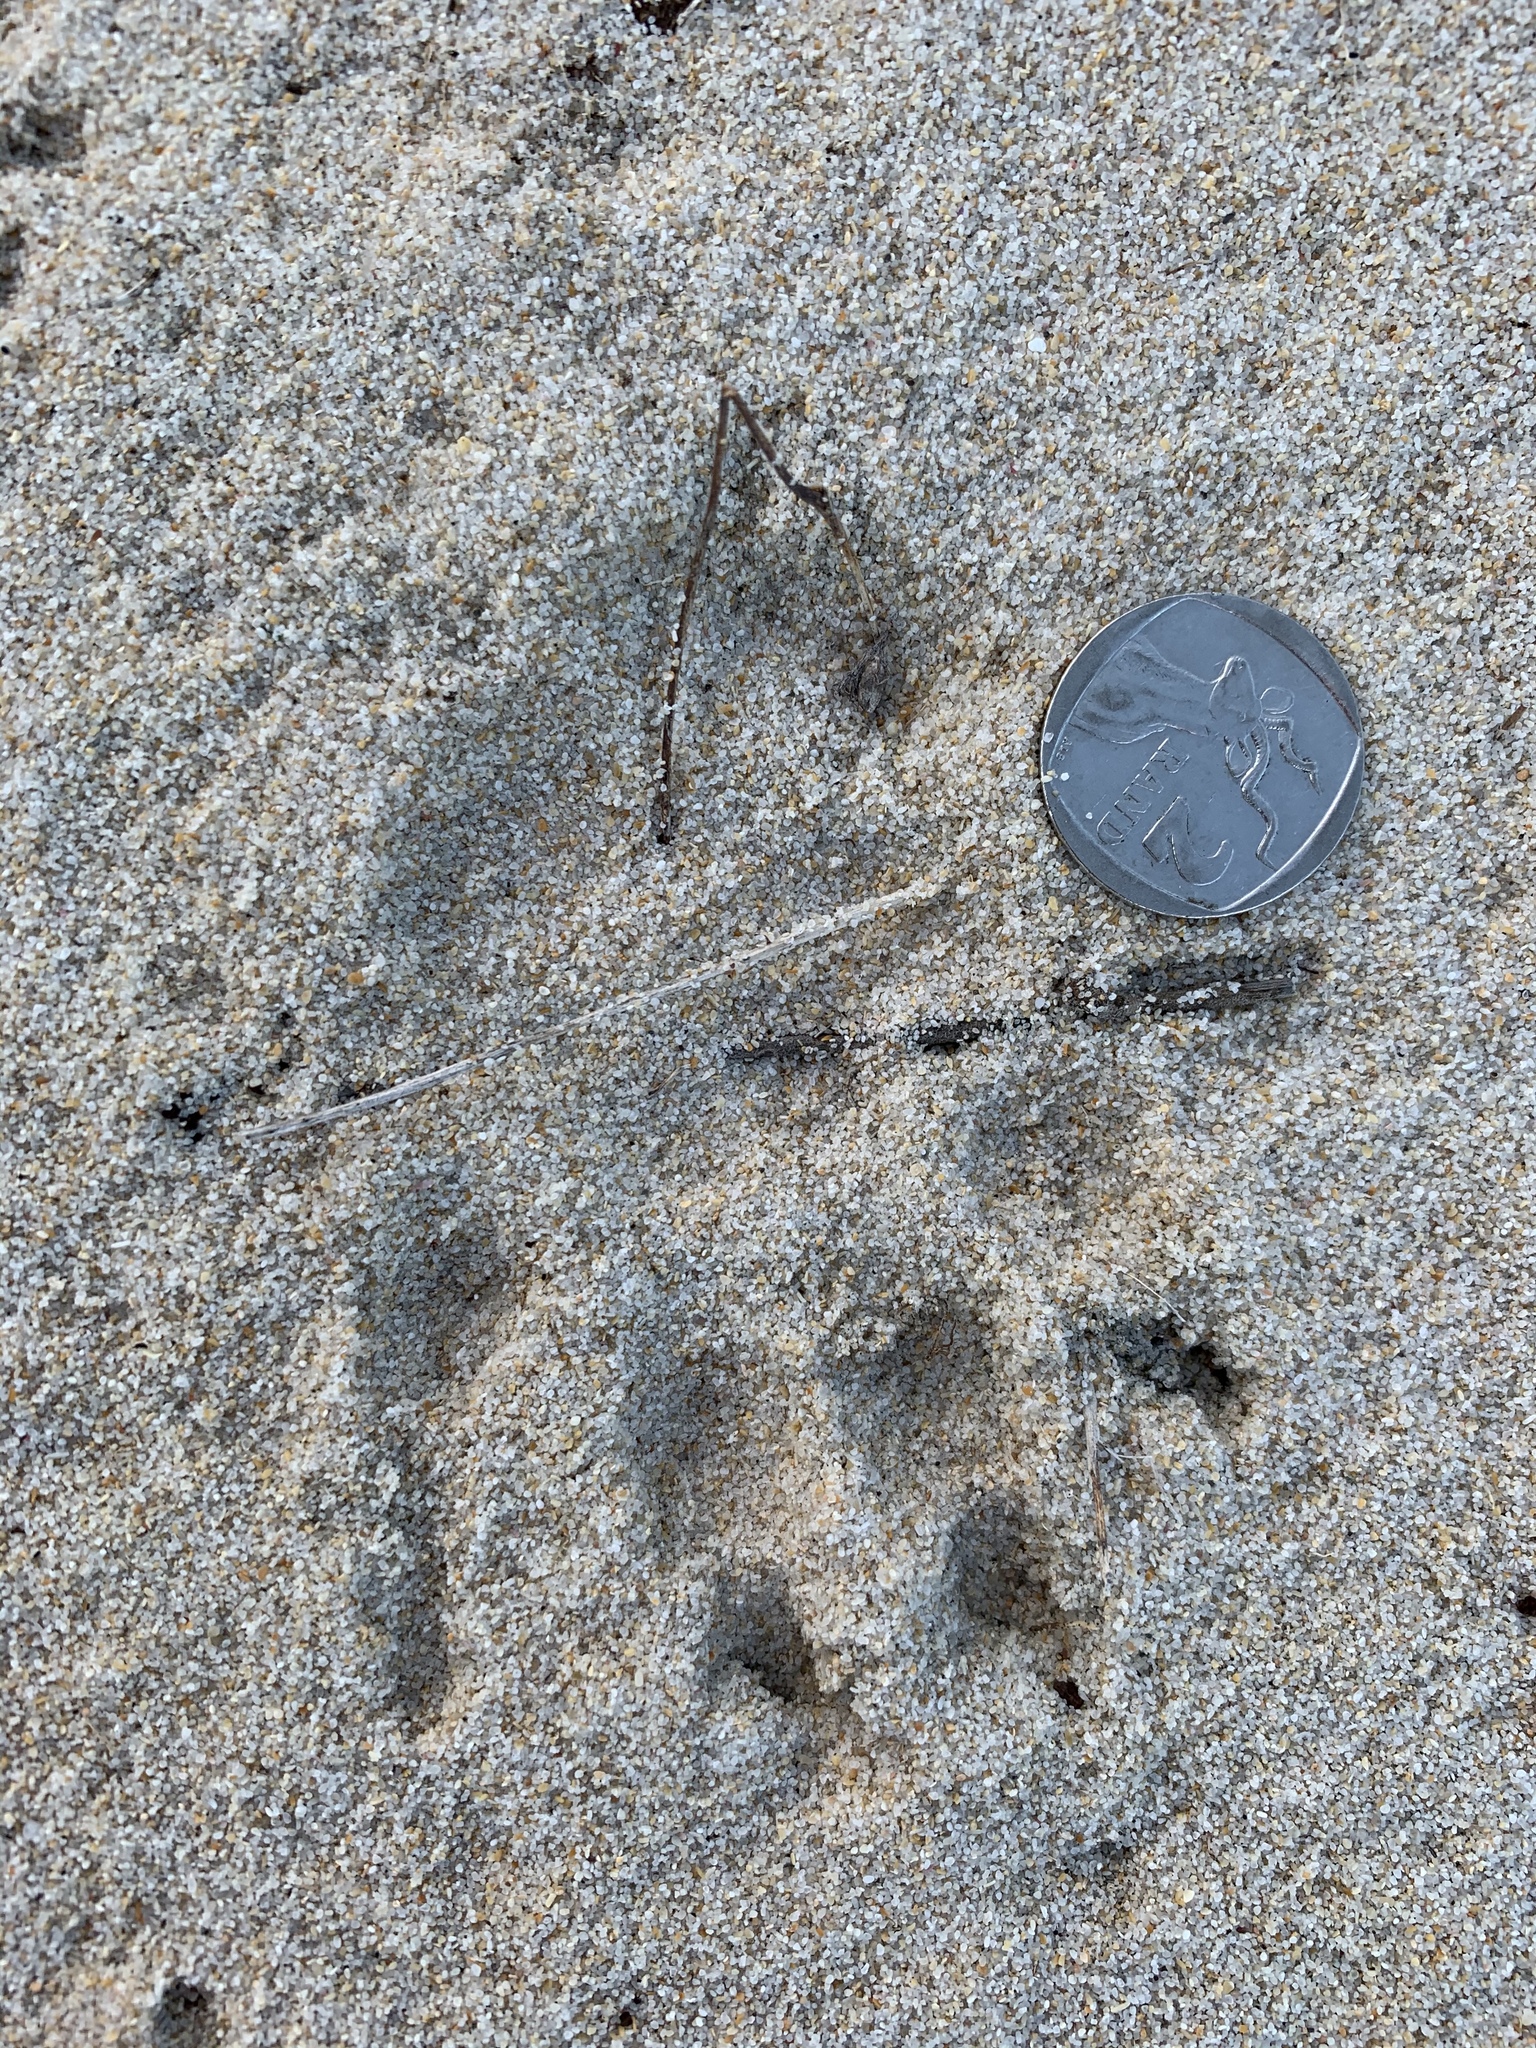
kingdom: Animalia
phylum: Chordata
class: Mammalia
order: Rodentia
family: Hystricidae
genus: Hystrix
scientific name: Hystrix africaeaustralis
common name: Cape porcupine
